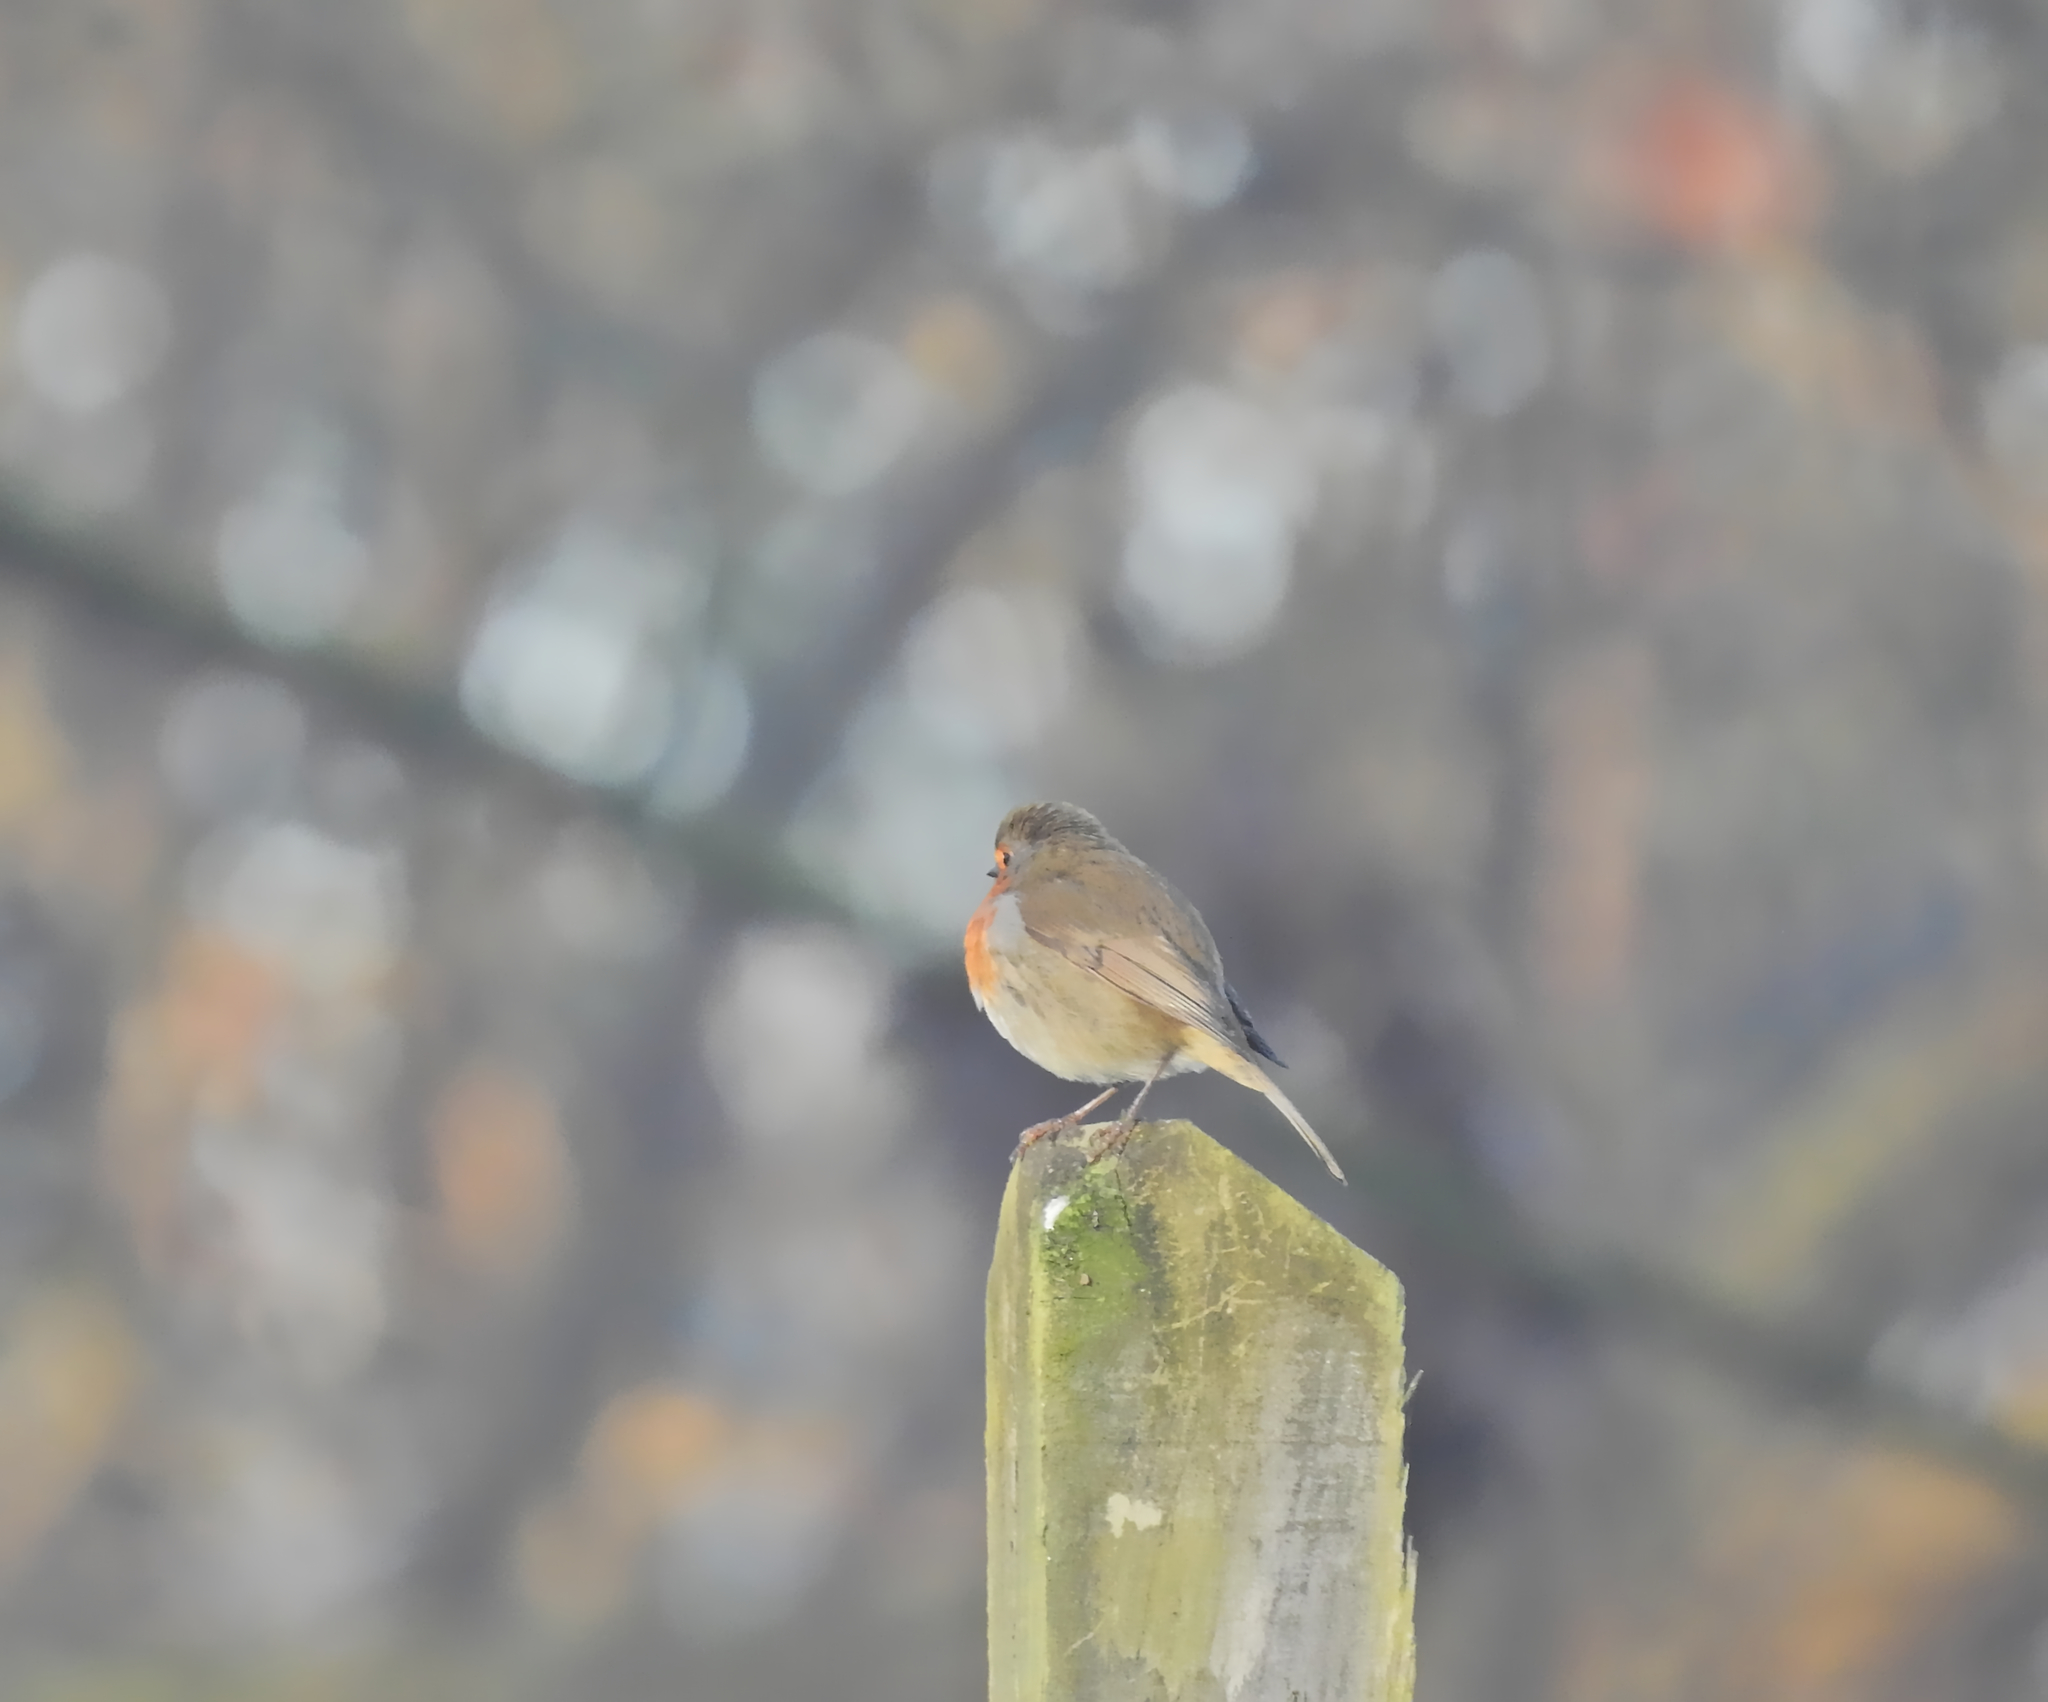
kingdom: Animalia
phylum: Chordata
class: Aves
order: Passeriformes
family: Muscicapidae
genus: Erithacus
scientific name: Erithacus rubecula
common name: European robin
